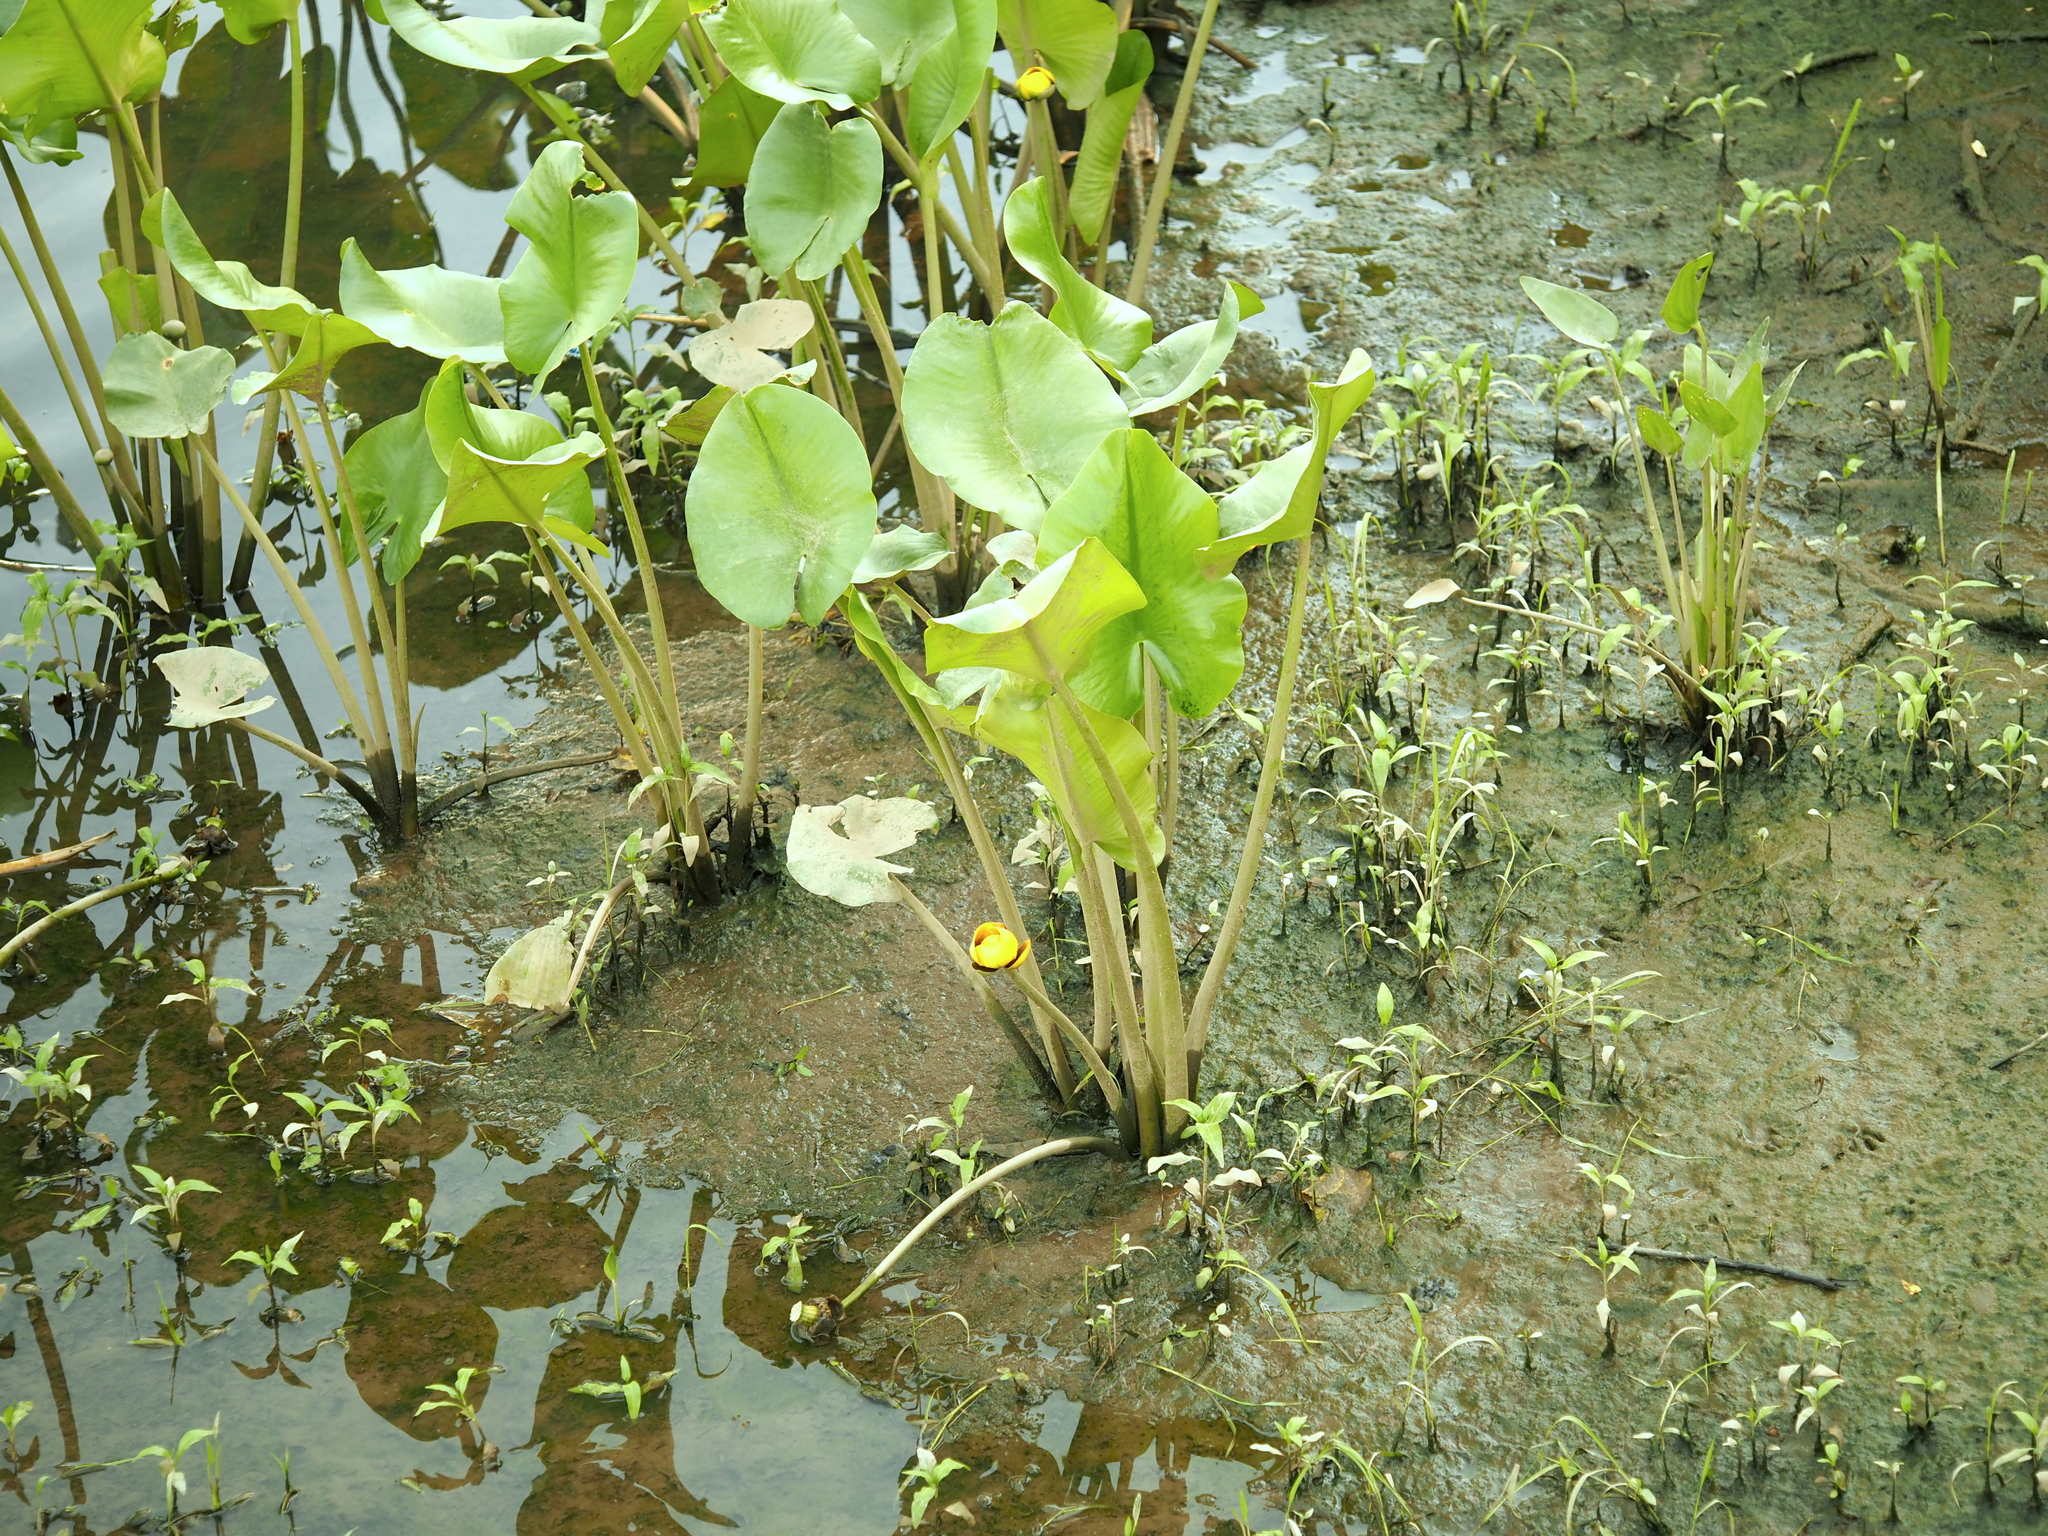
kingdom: Plantae
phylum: Tracheophyta
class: Magnoliopsida
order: Nymphaeales
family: Nymphaeaceae
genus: Nuphar
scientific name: Nuphar advena
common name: Spatter-dock
